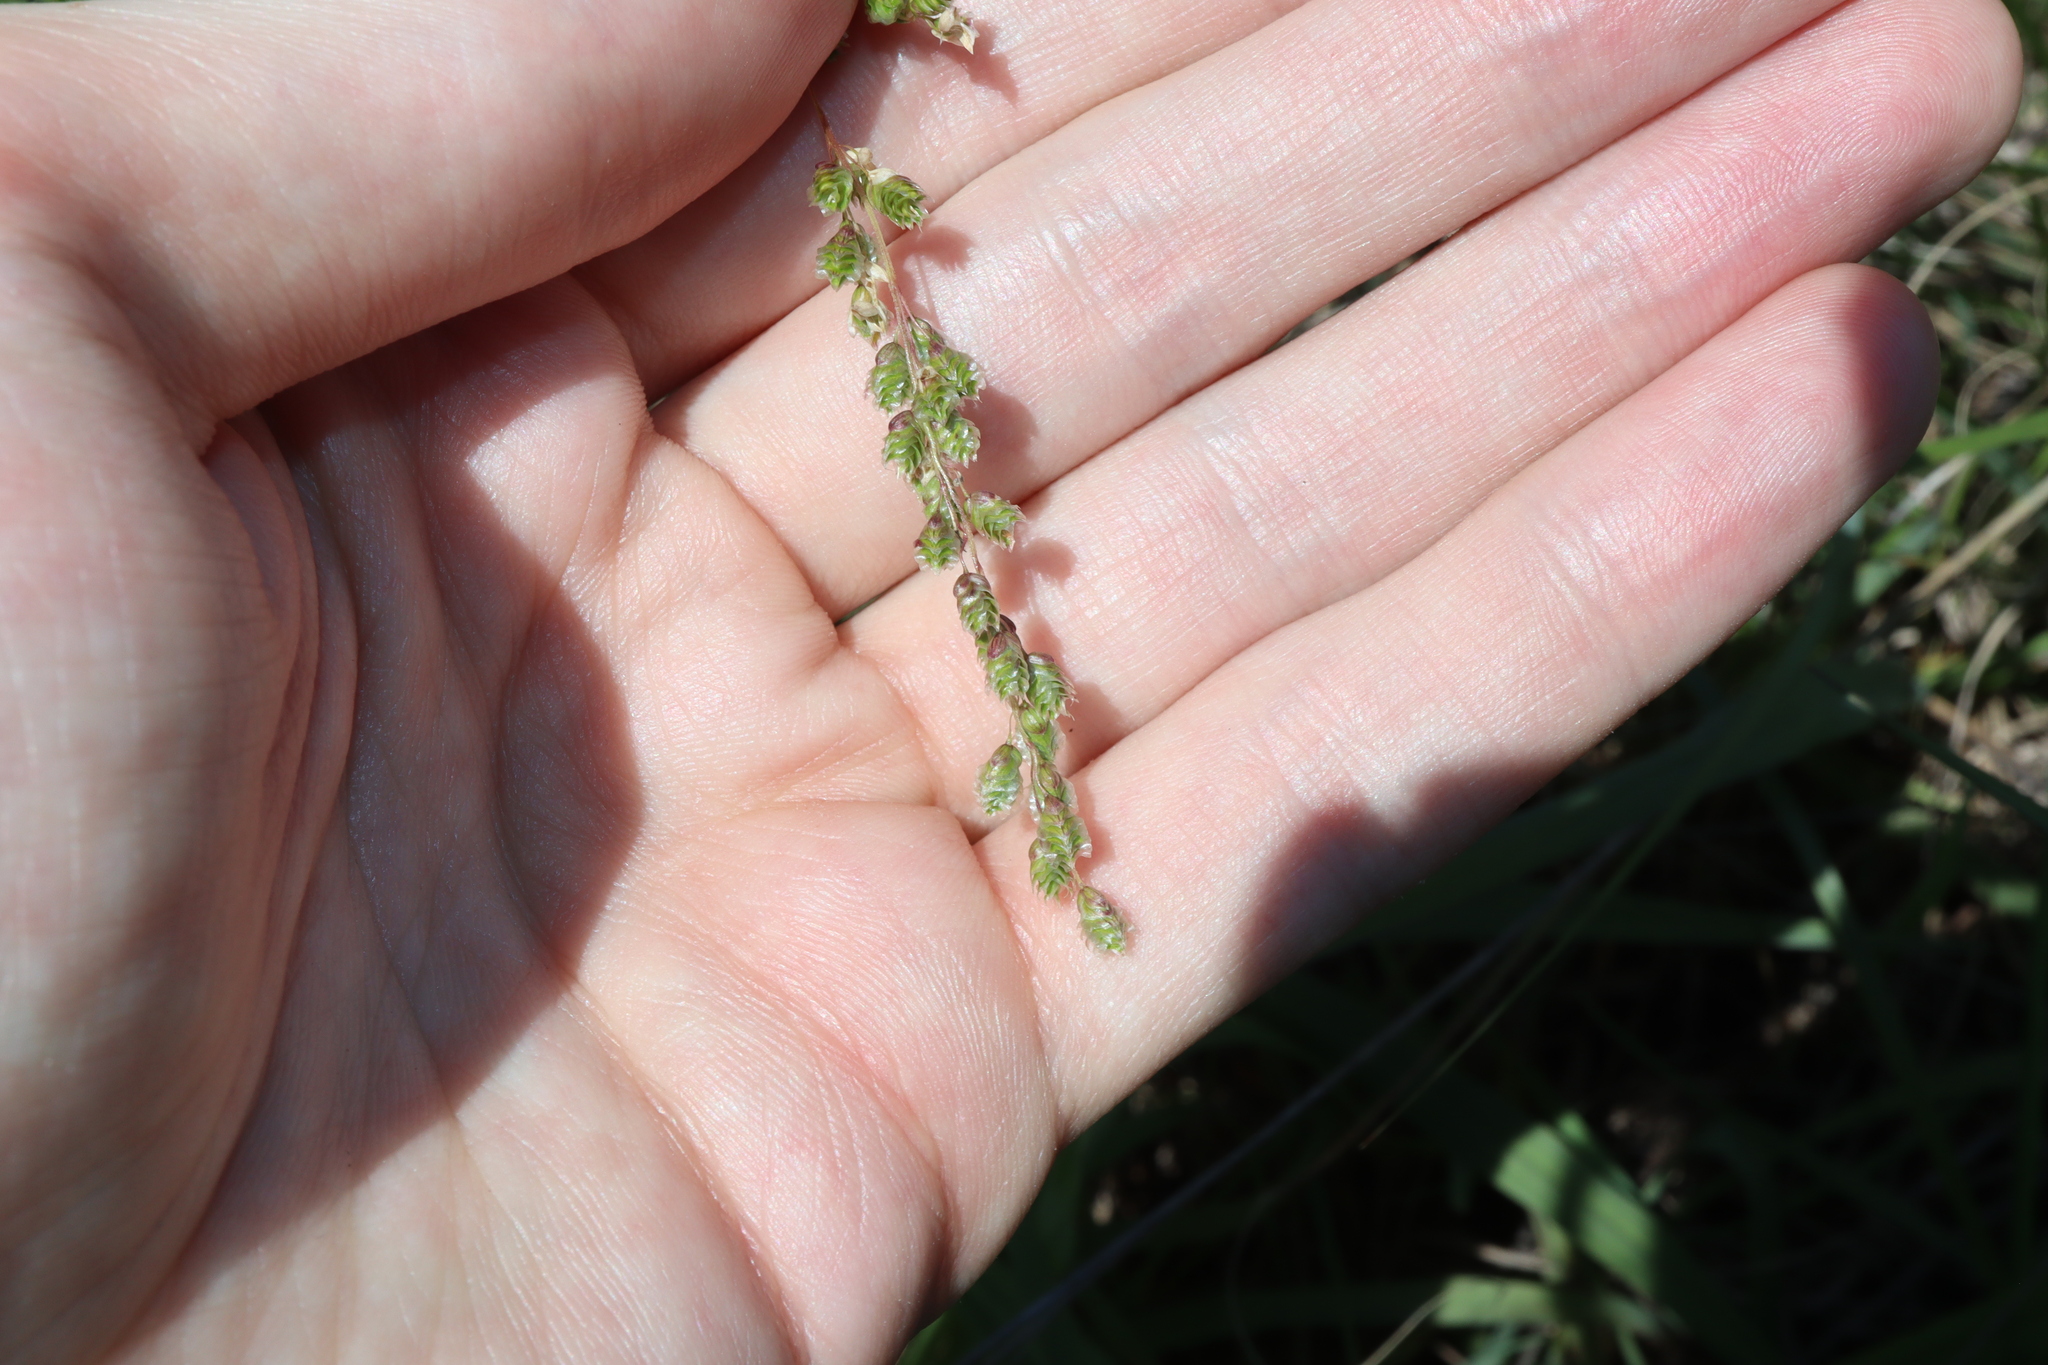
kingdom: Plantae
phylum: Tracheophyta
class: Liliopsida
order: Poales
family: Poaceae
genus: Chascolytrum
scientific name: Chascolytrum subaristatum
